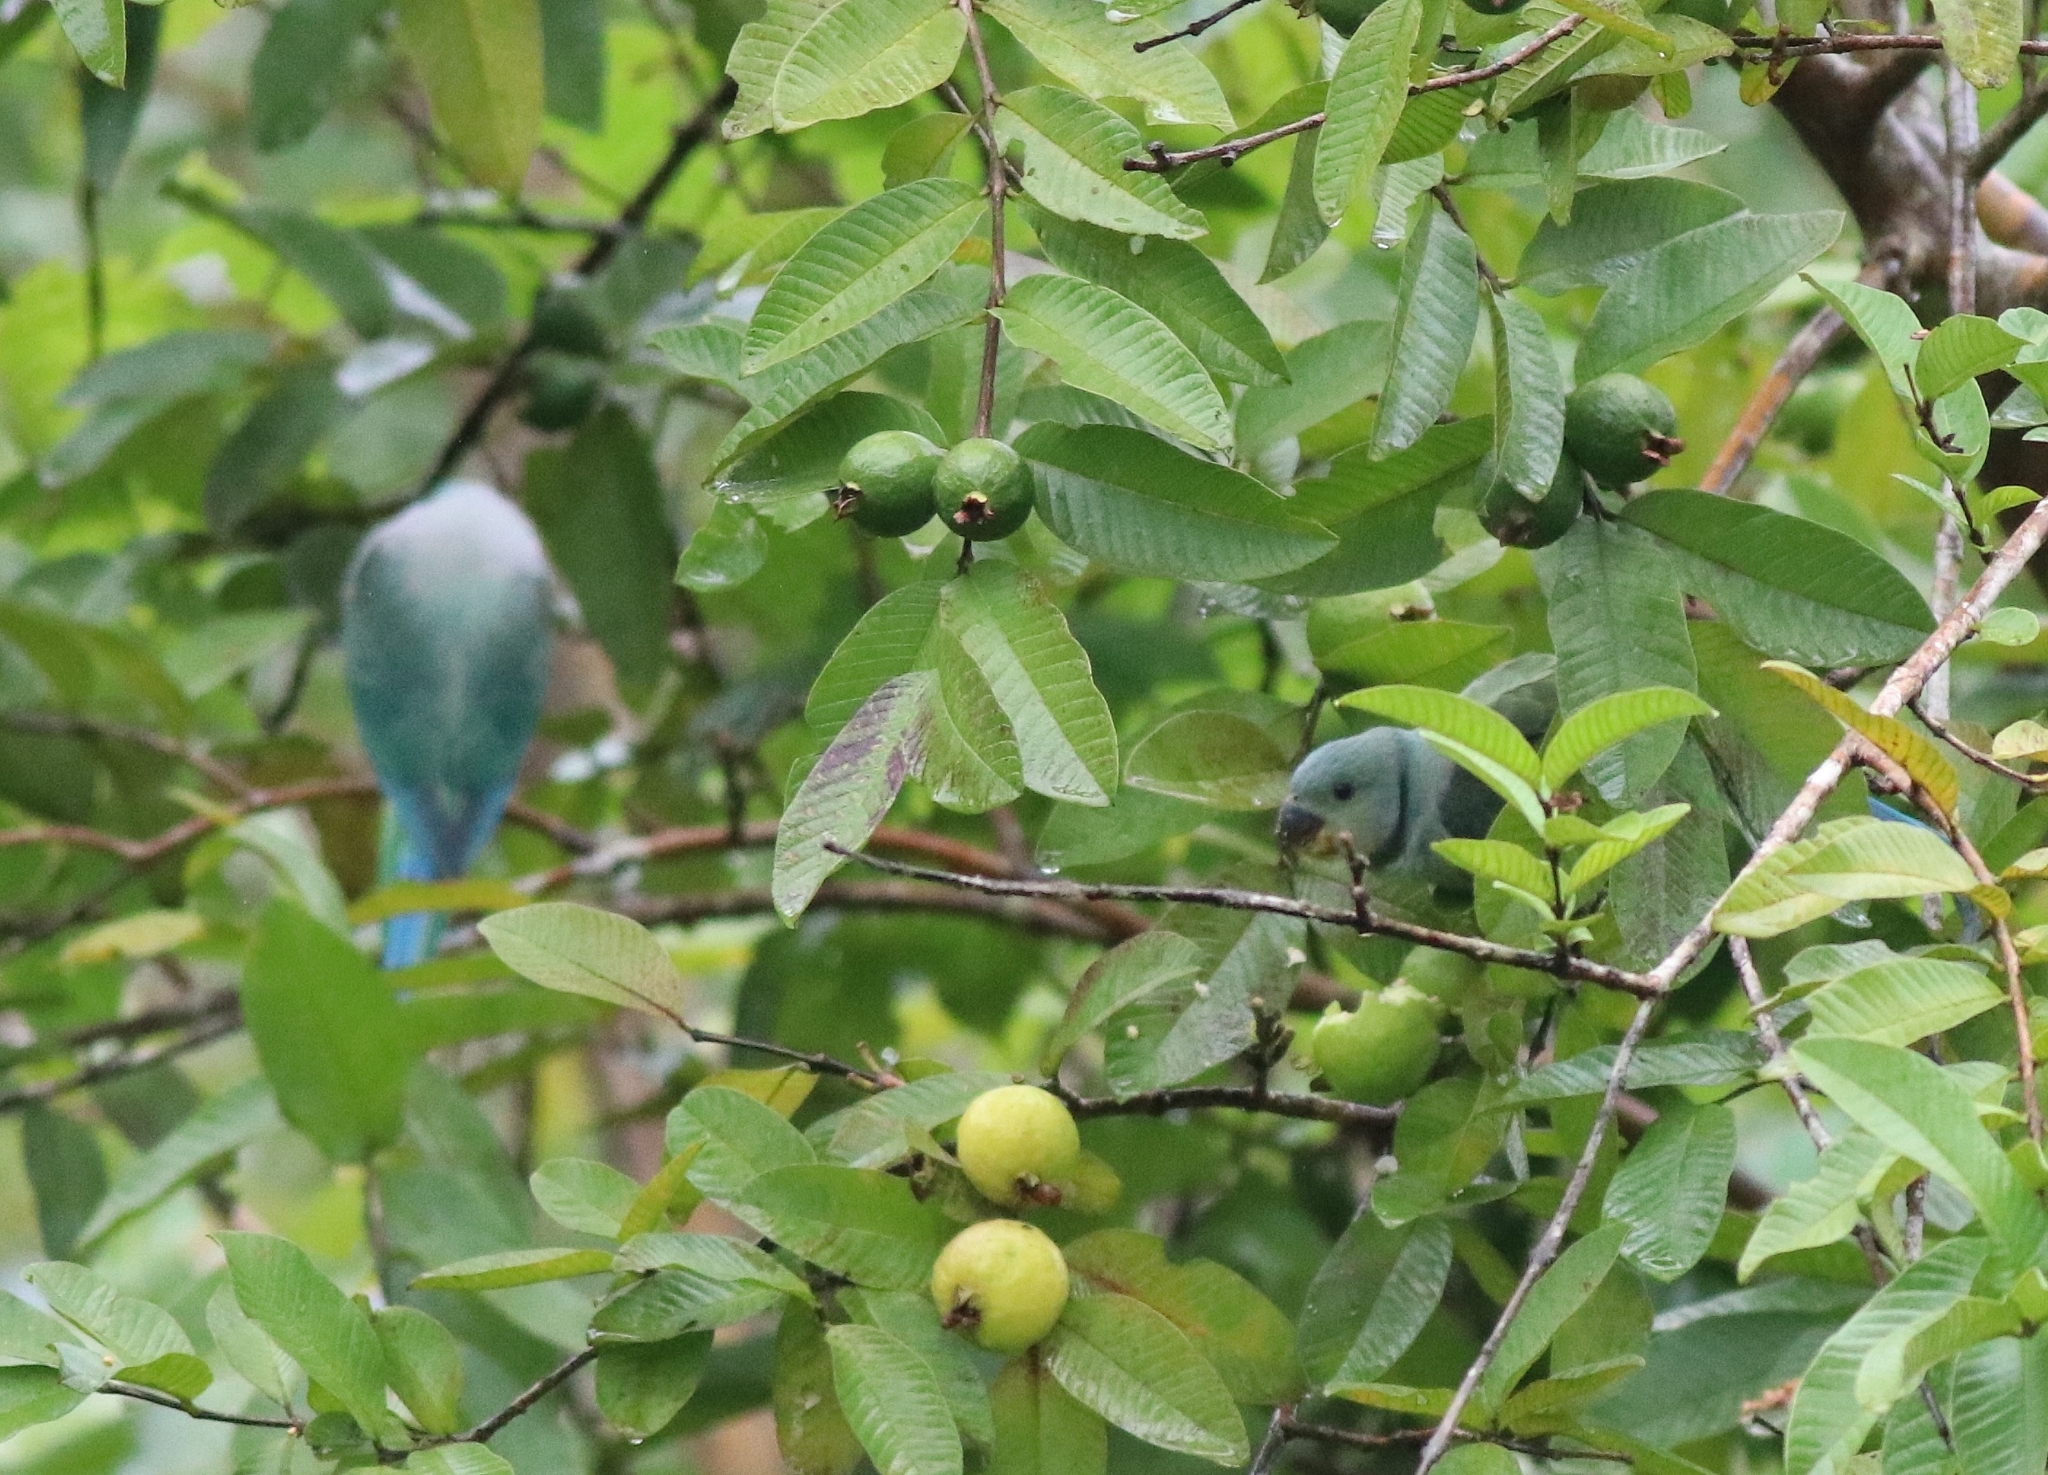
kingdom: Animalia
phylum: Chordata
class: Aves
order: Psittaciformes
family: Psittacidae
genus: Psittacula
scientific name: Psittacula columboides
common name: Blue-winged parakeet
